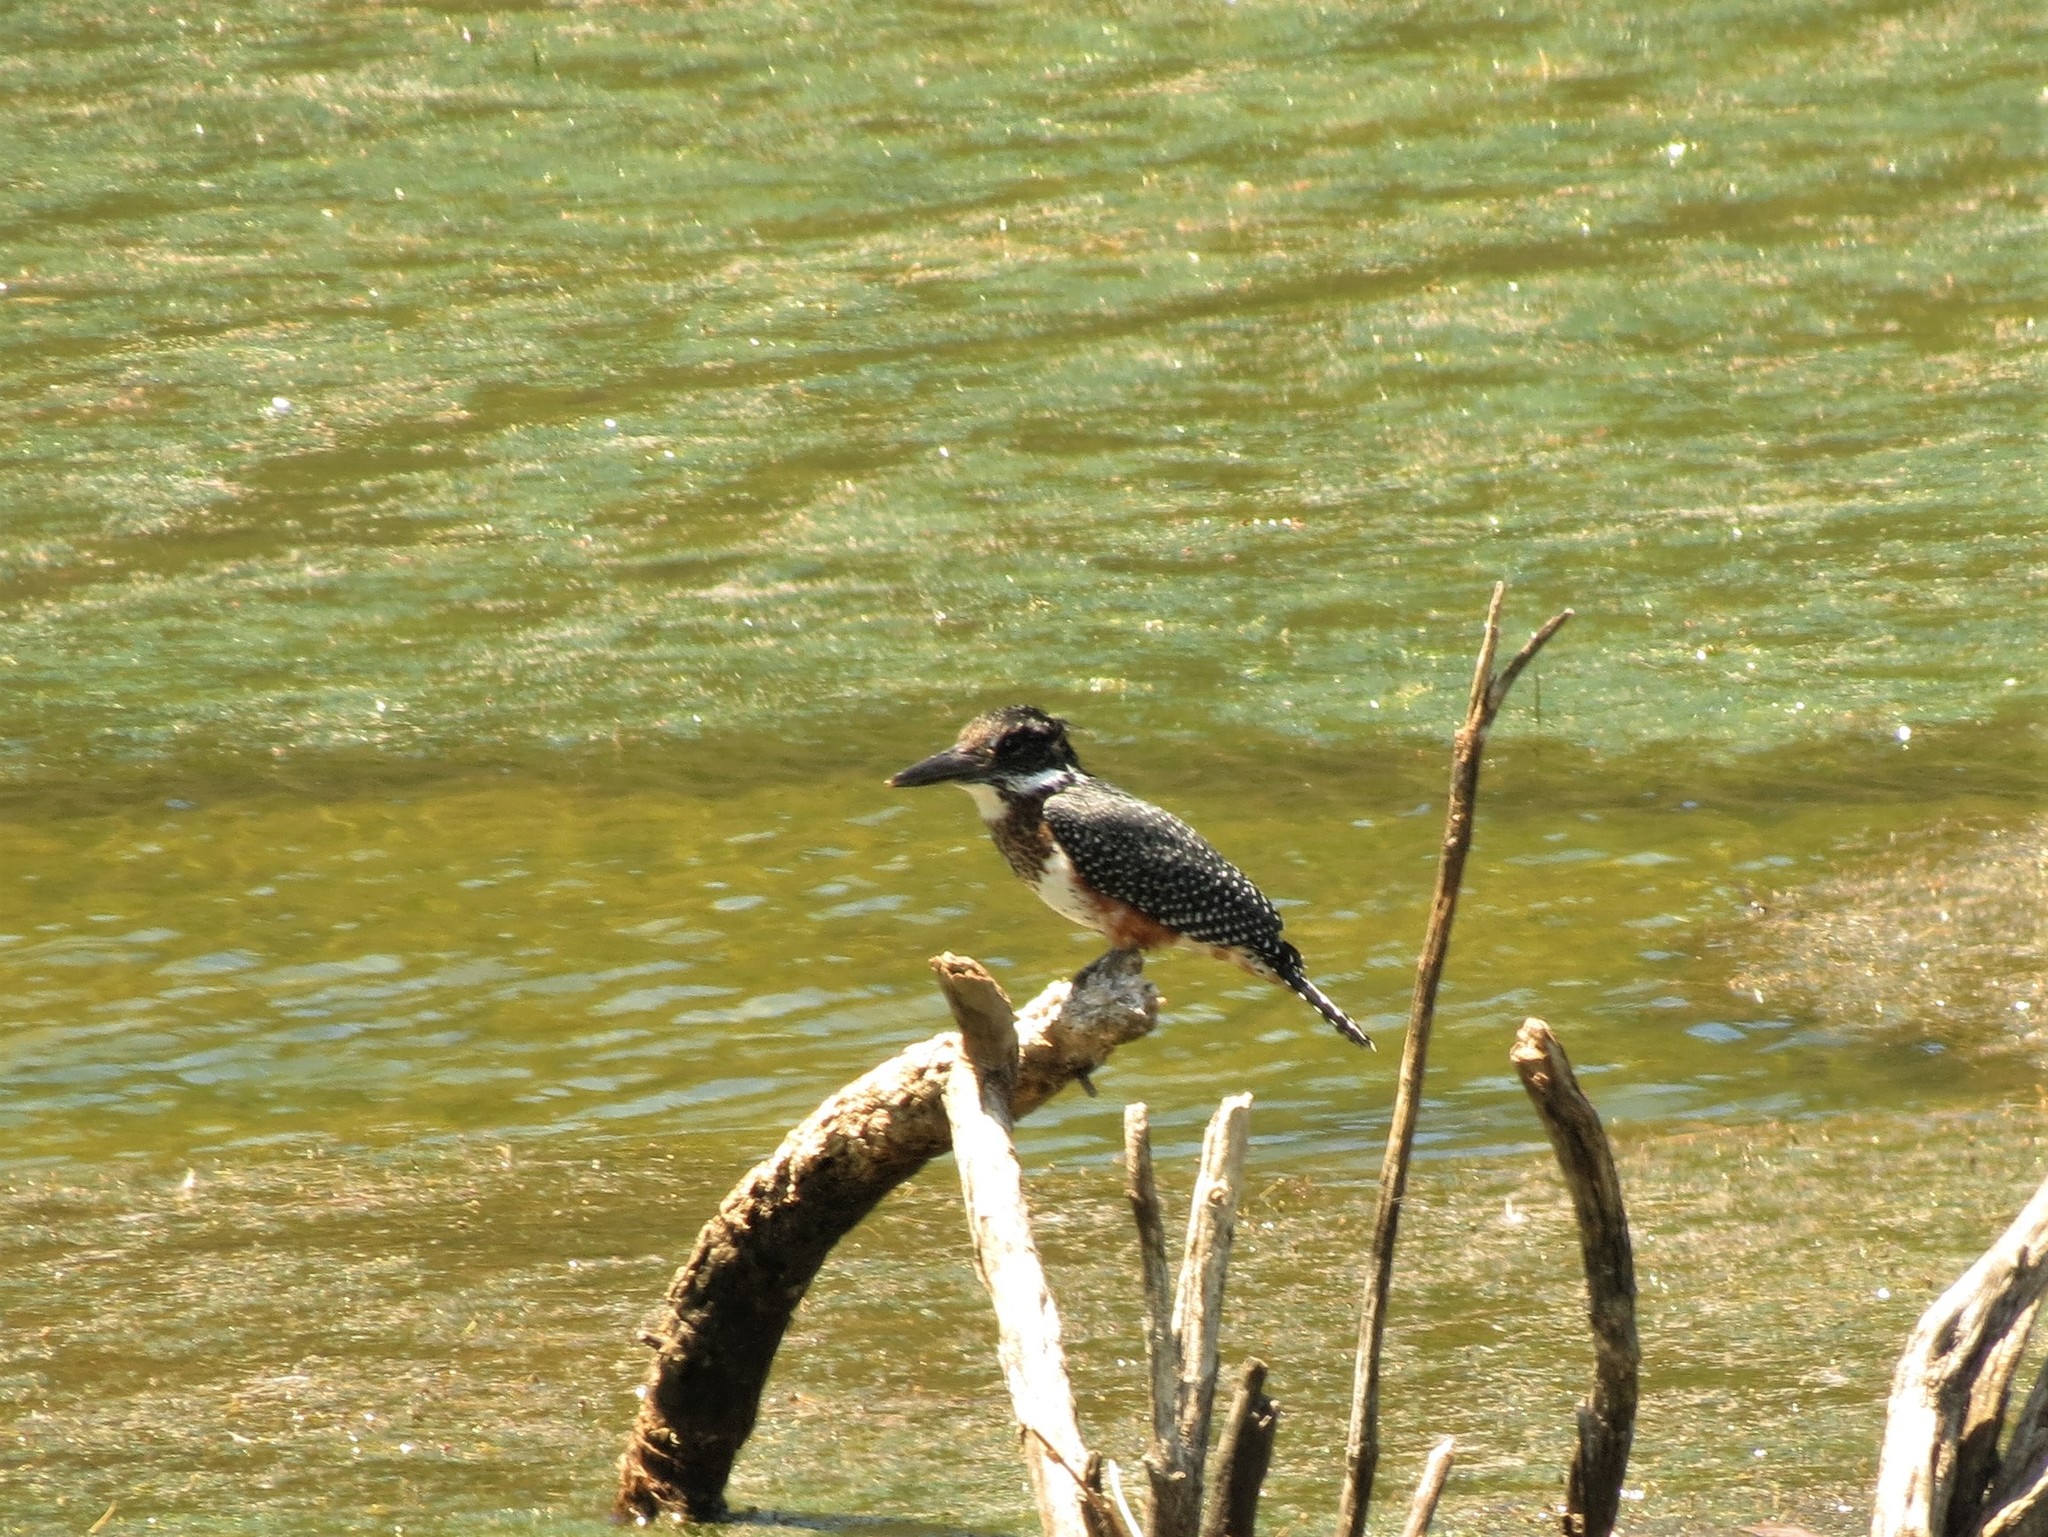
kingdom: Animalia
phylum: Chordata
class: Aves
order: Coraciiformes
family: Alcedinidae
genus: Megaceryle
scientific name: Megaceryle maxima
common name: Giant kingfisher
